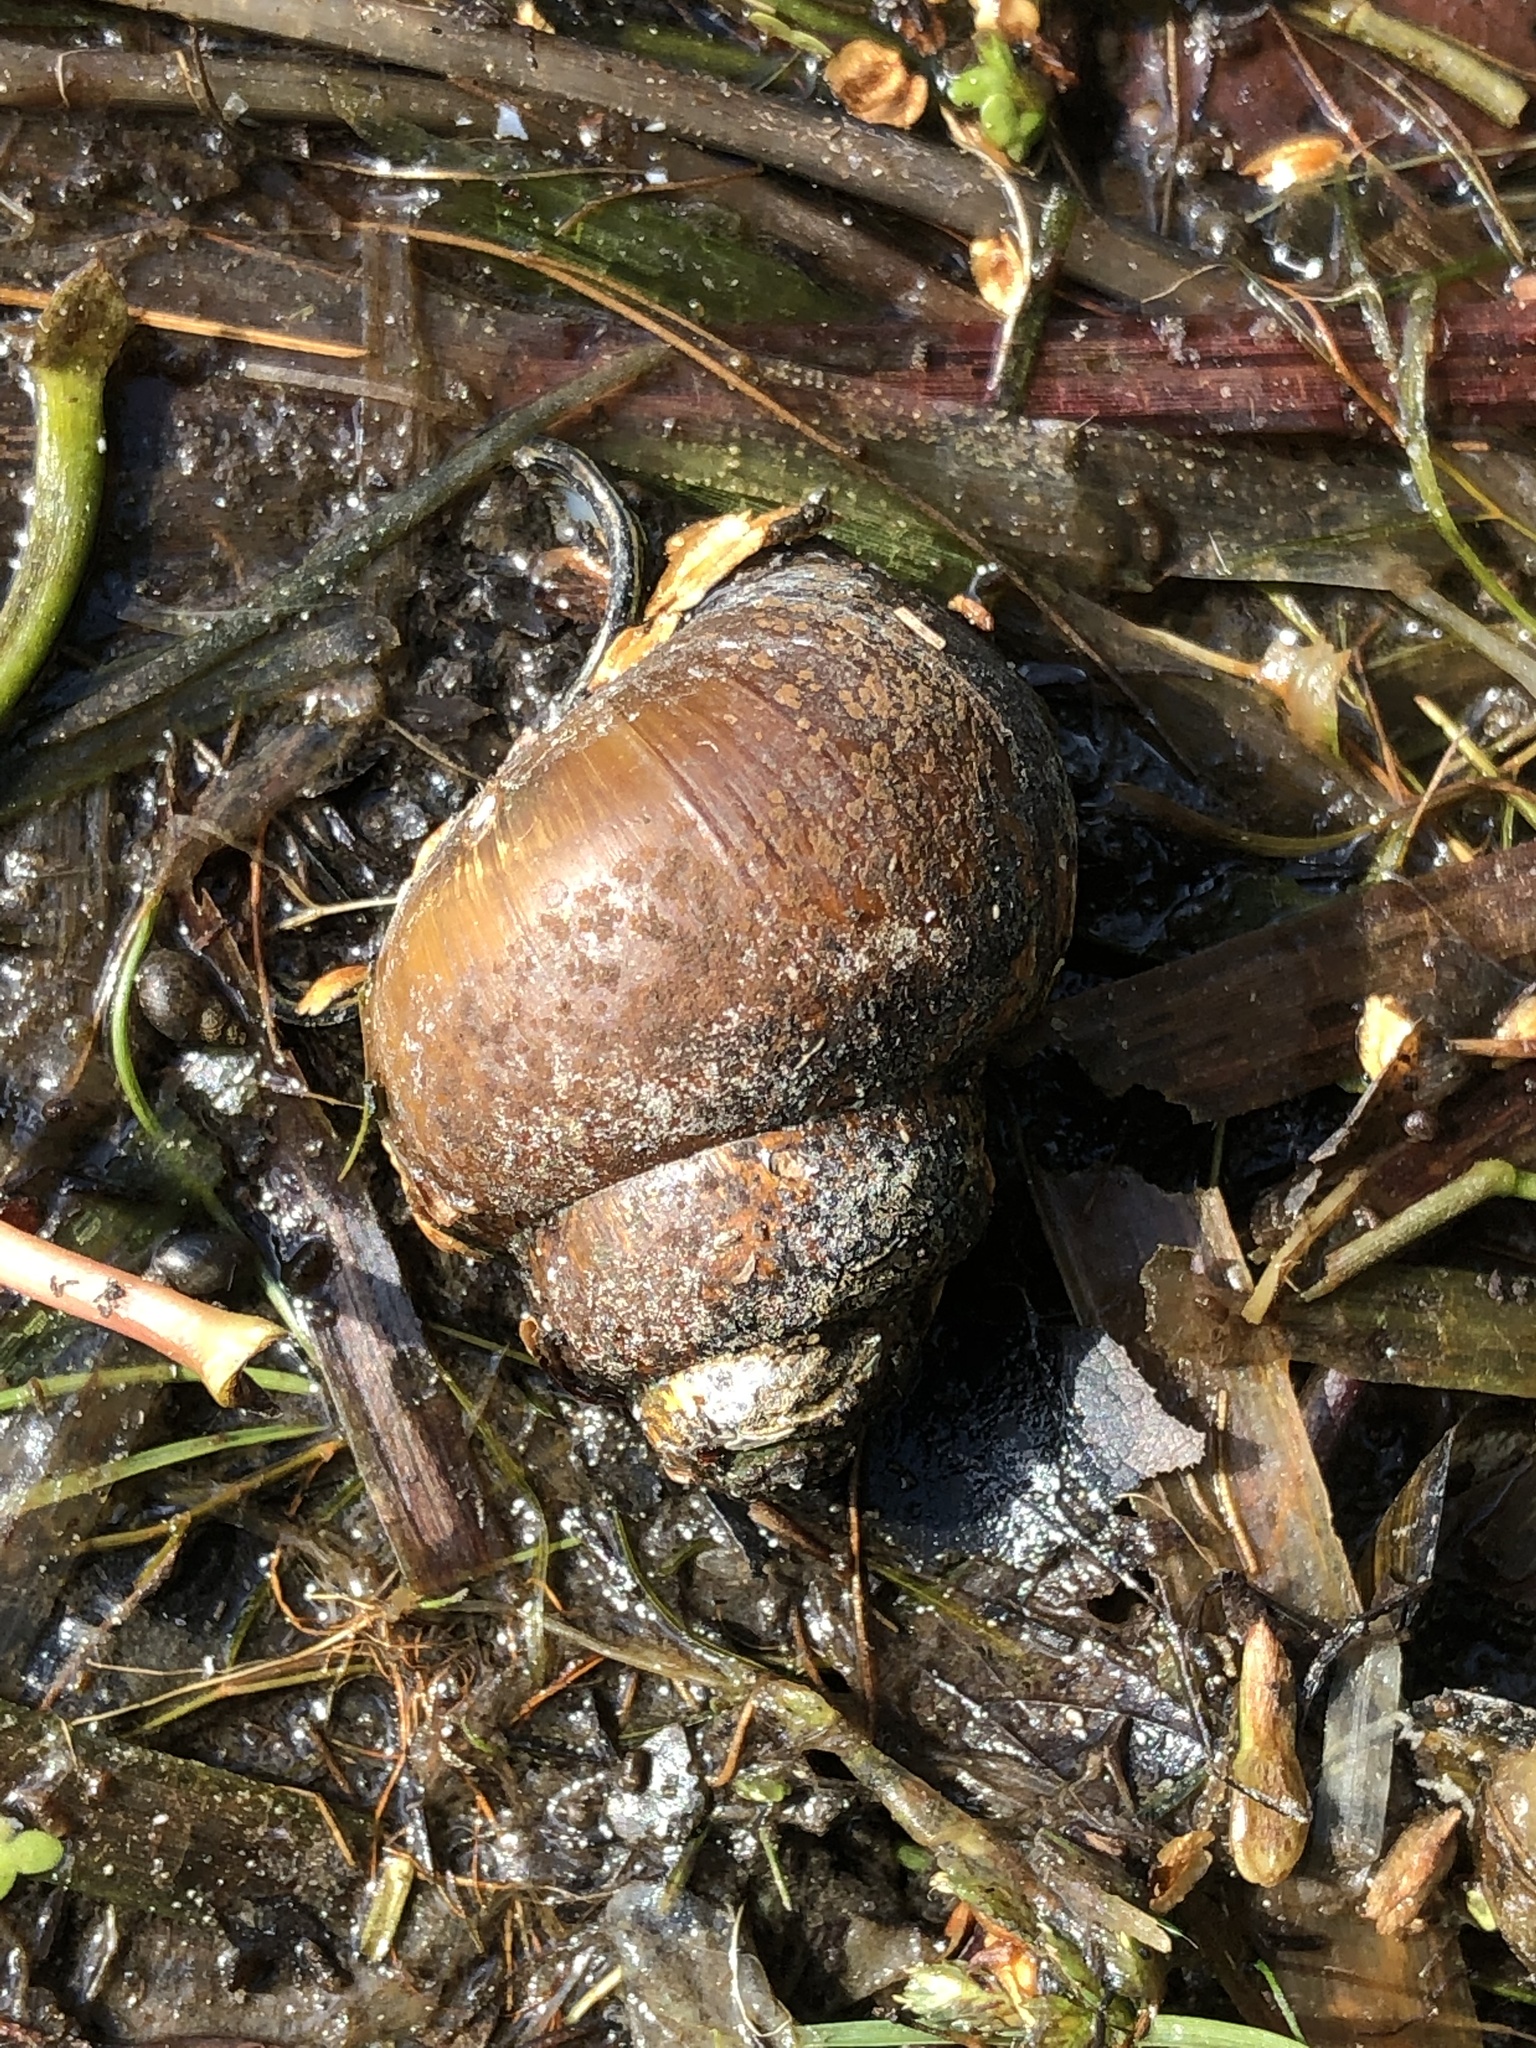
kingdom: Animalia
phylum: Mollusca
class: Gastropoda
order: Architaenioglossa
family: Viviparidae
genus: Cipangopaludina
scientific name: Cipangopaludina chinensis
